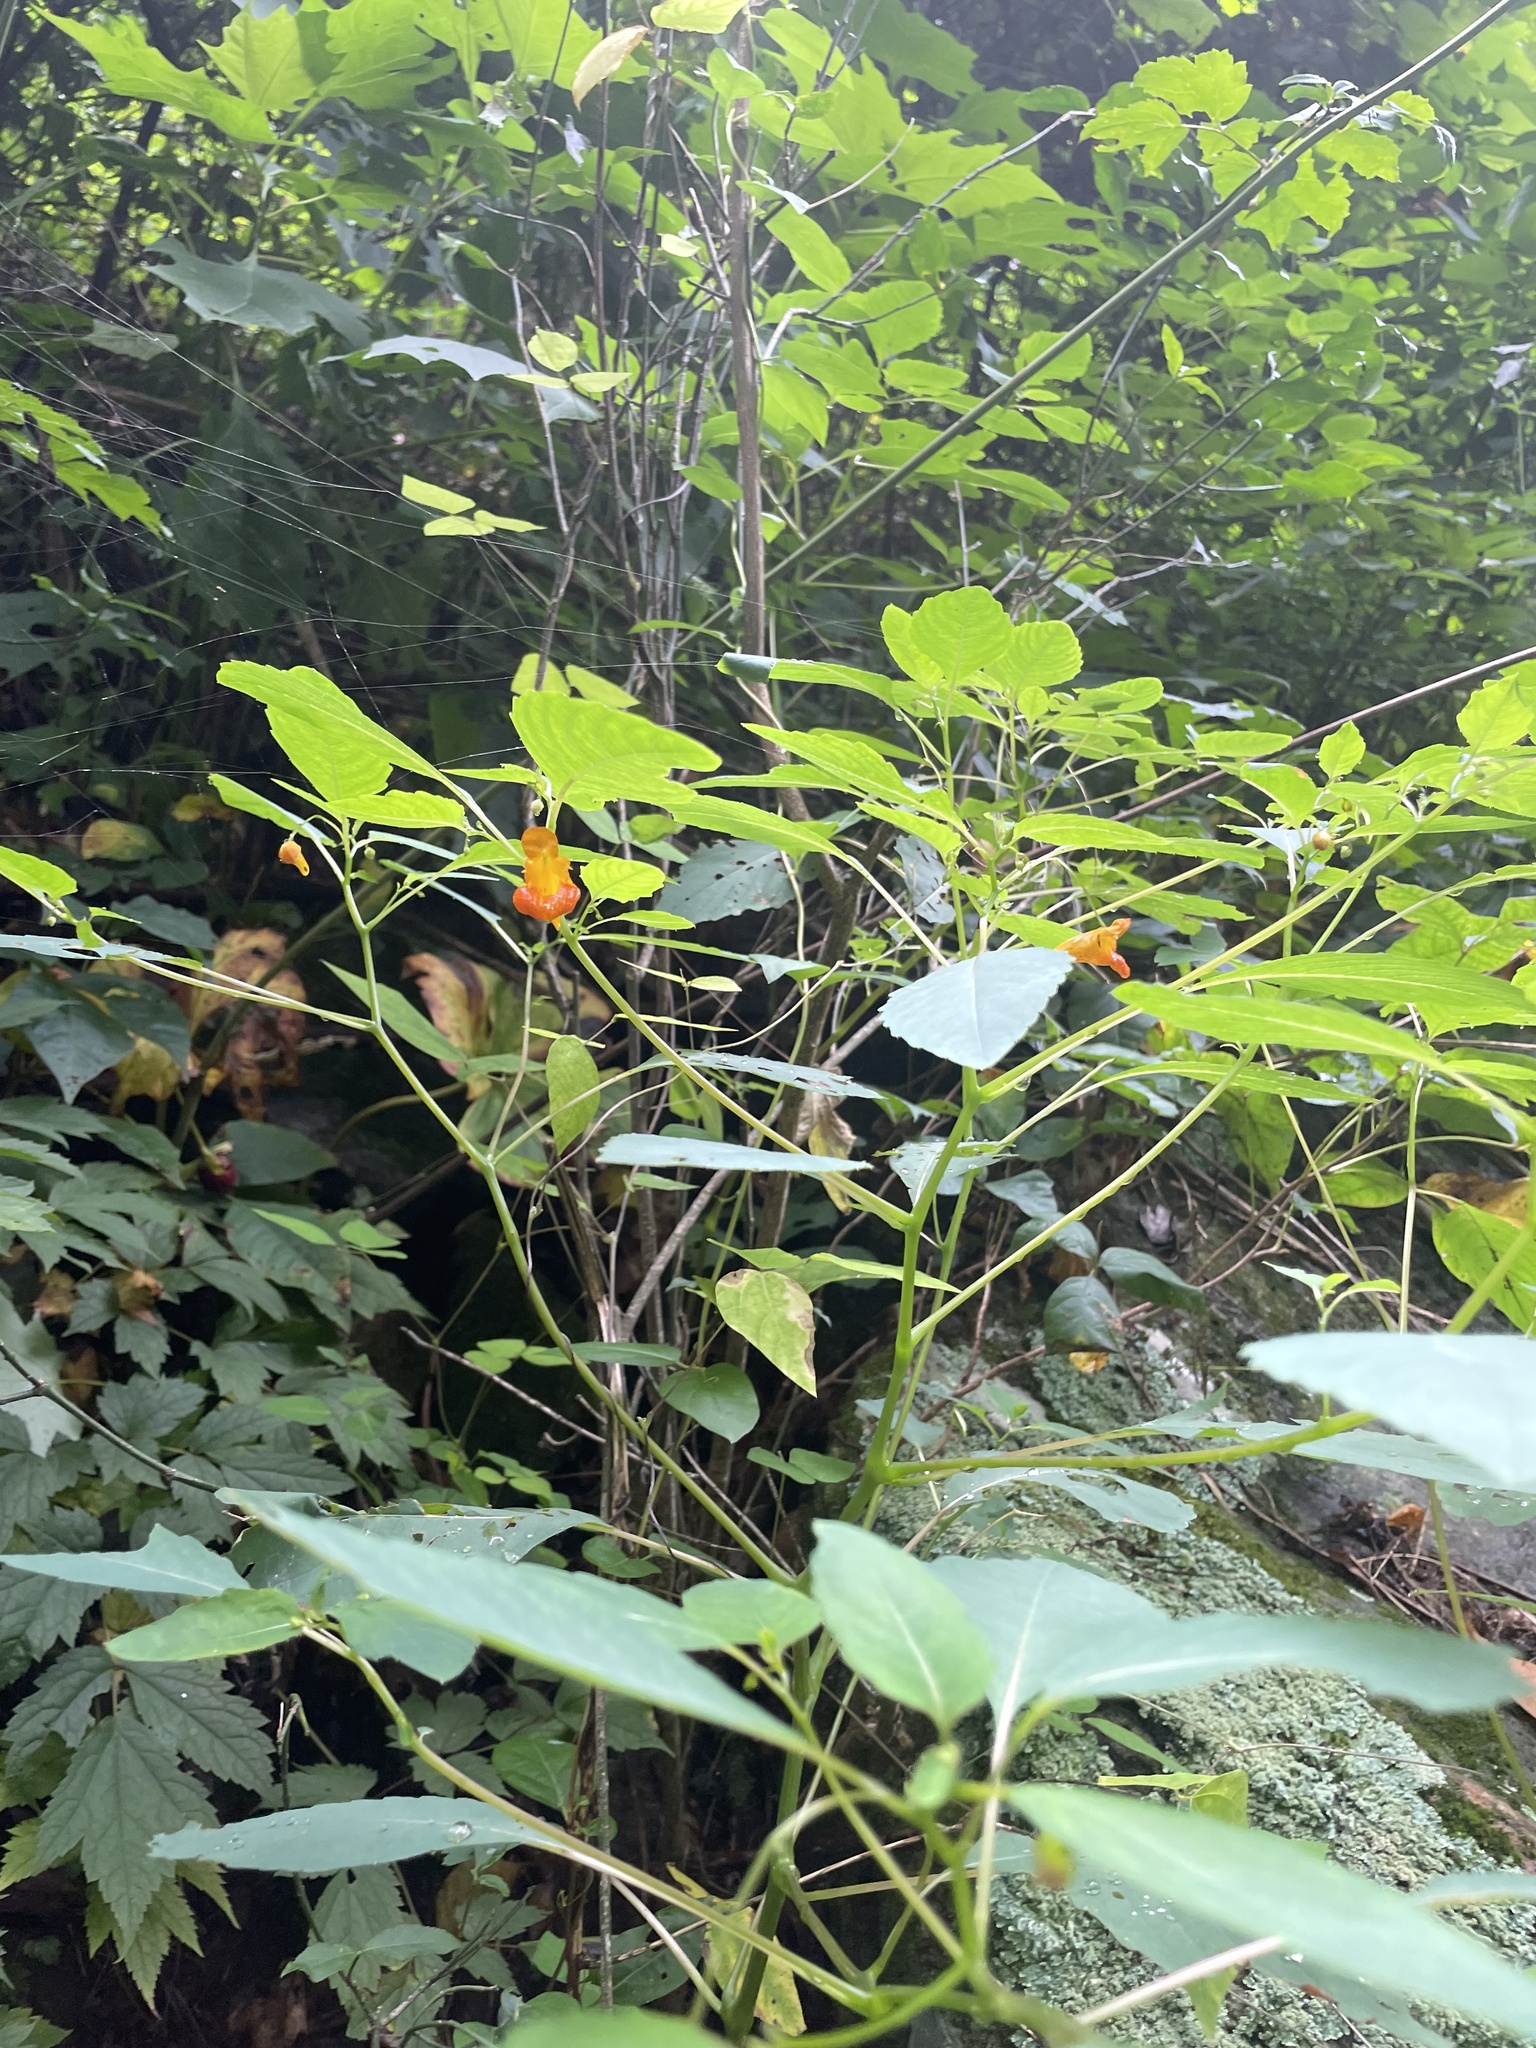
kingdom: Plantae
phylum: Tracheophyta
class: Magnoliopsida
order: Ericales
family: Balsaminaceae
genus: Impatiens
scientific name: Impatiens capensis
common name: Orange balsam
